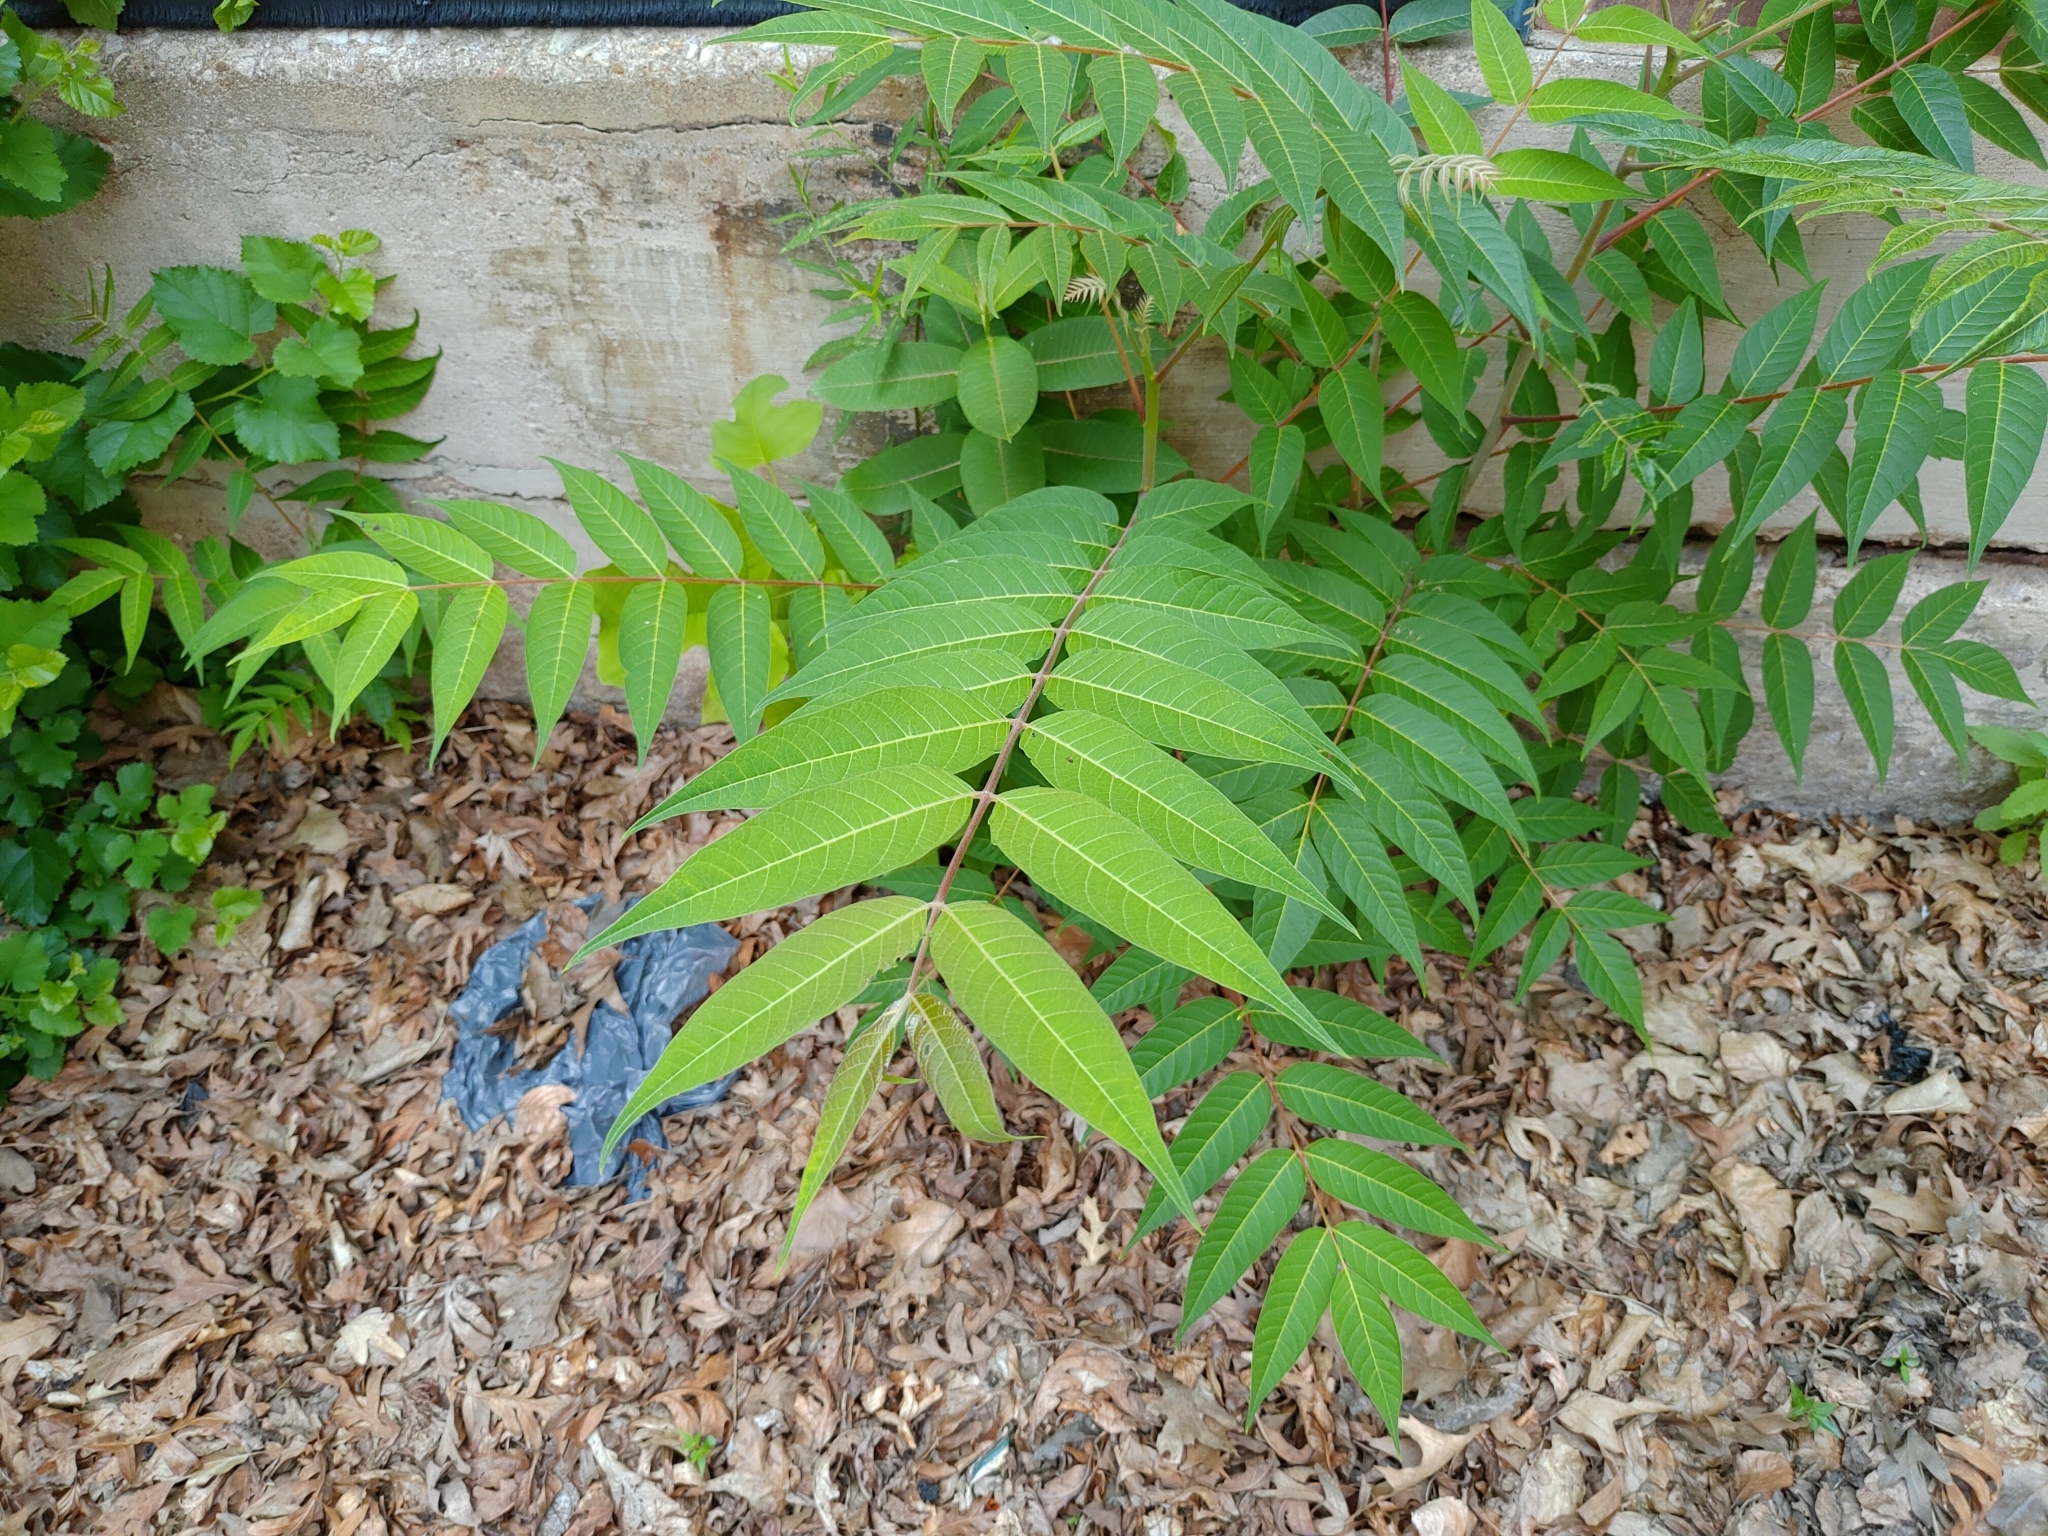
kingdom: Plantae
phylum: Tracheophyta
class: Magnoliopsida
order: Sapindales
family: Simaroubaceae
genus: Ailanthus
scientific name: Ailanthus altissima
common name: Tree-of-heaven
